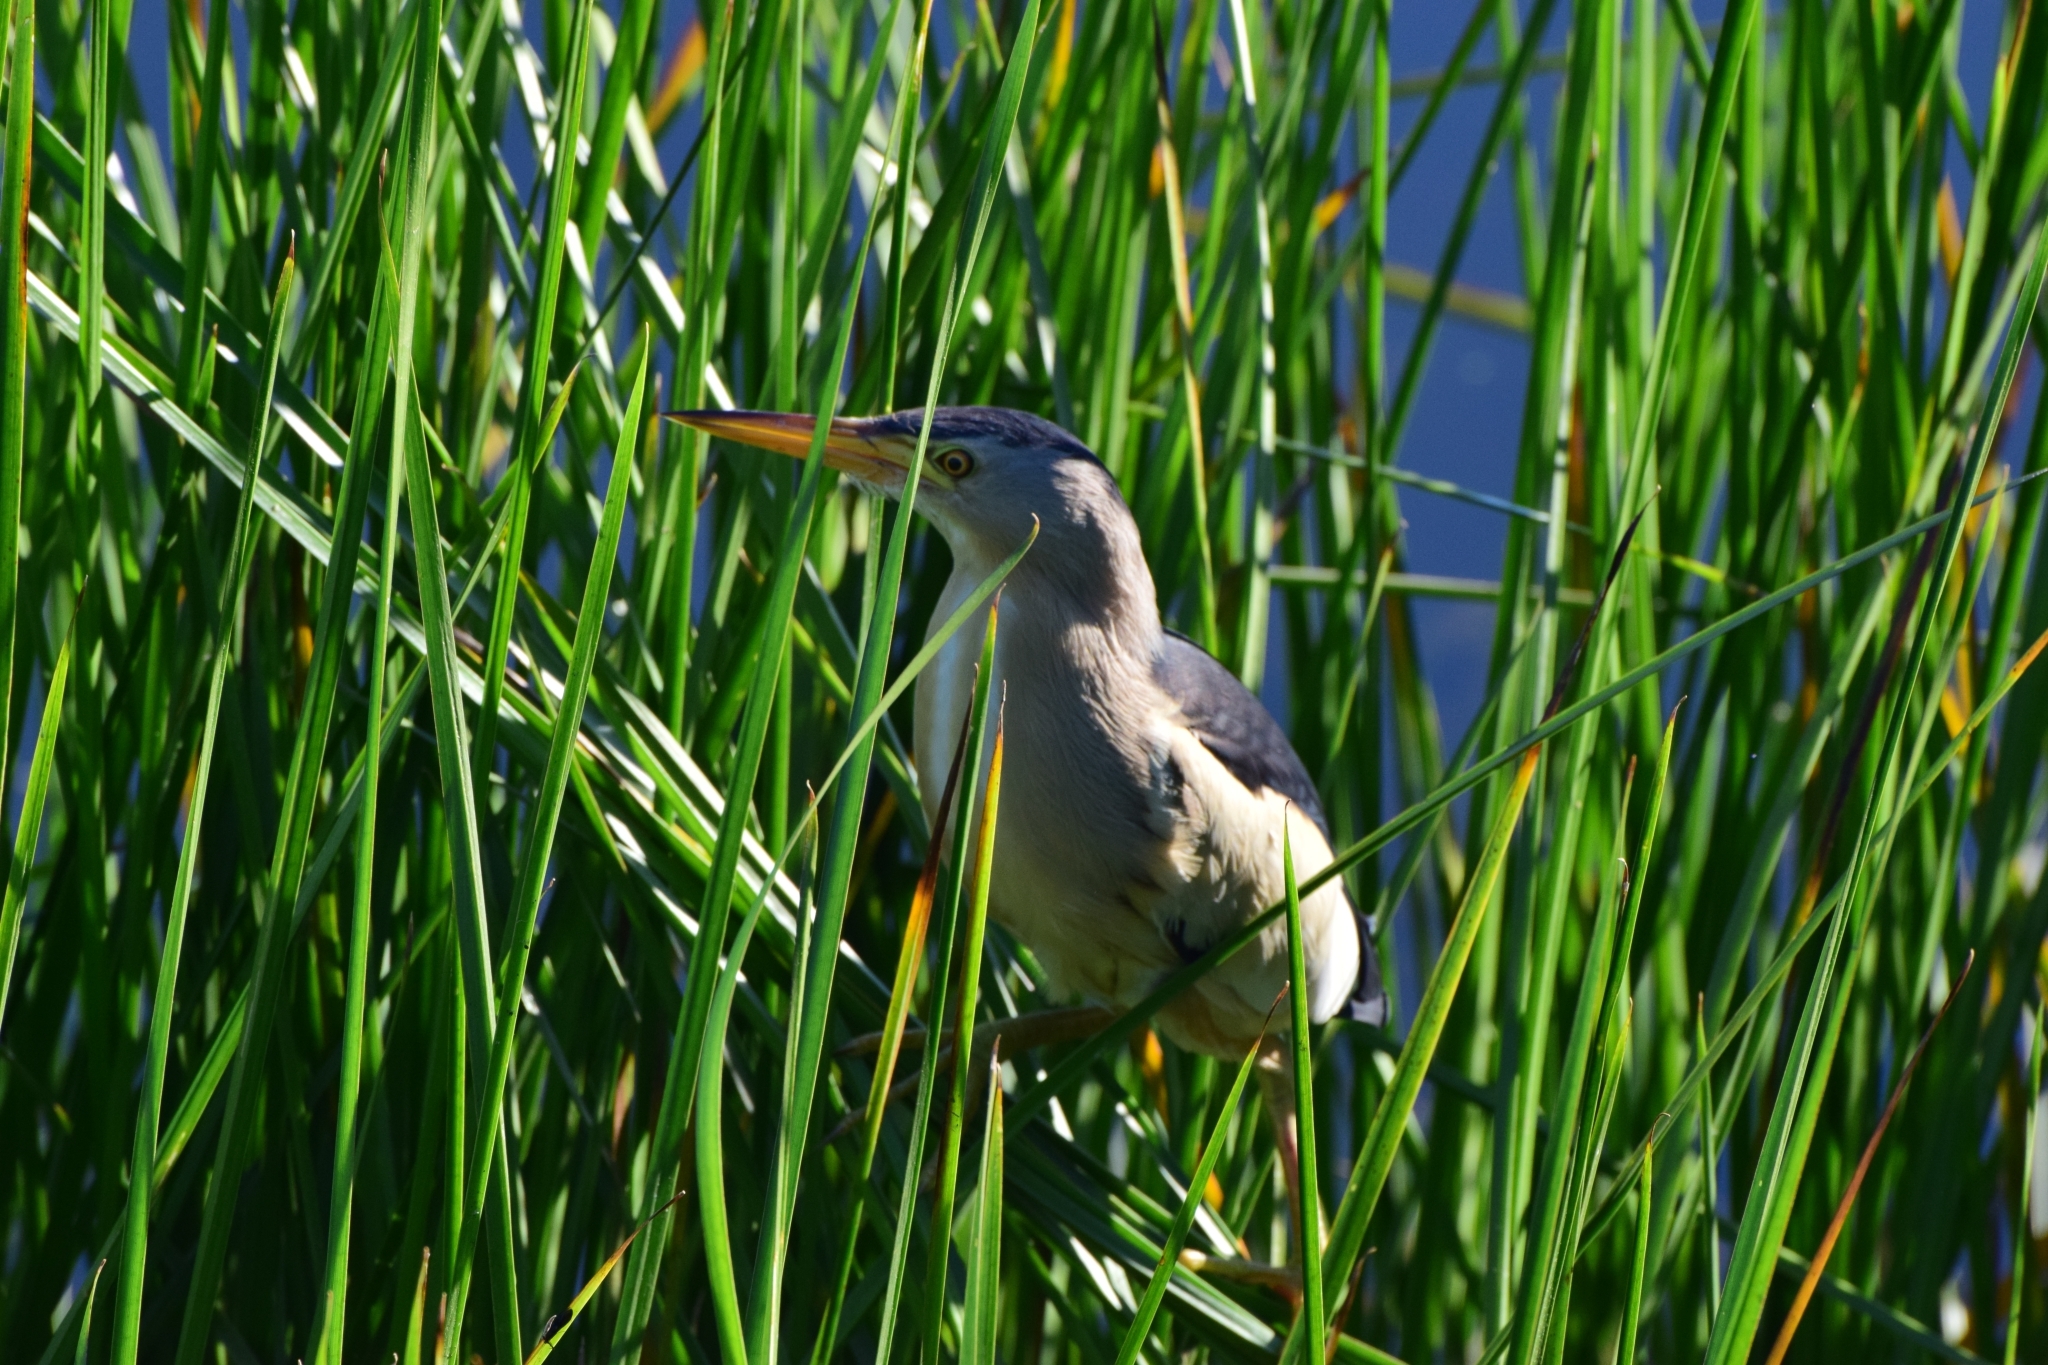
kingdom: Animalia
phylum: Chordata
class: Aves
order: Pelecaniformes
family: Ardeidae
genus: Ixobrychus
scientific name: Ixobrychus minutus
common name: Little bittern
